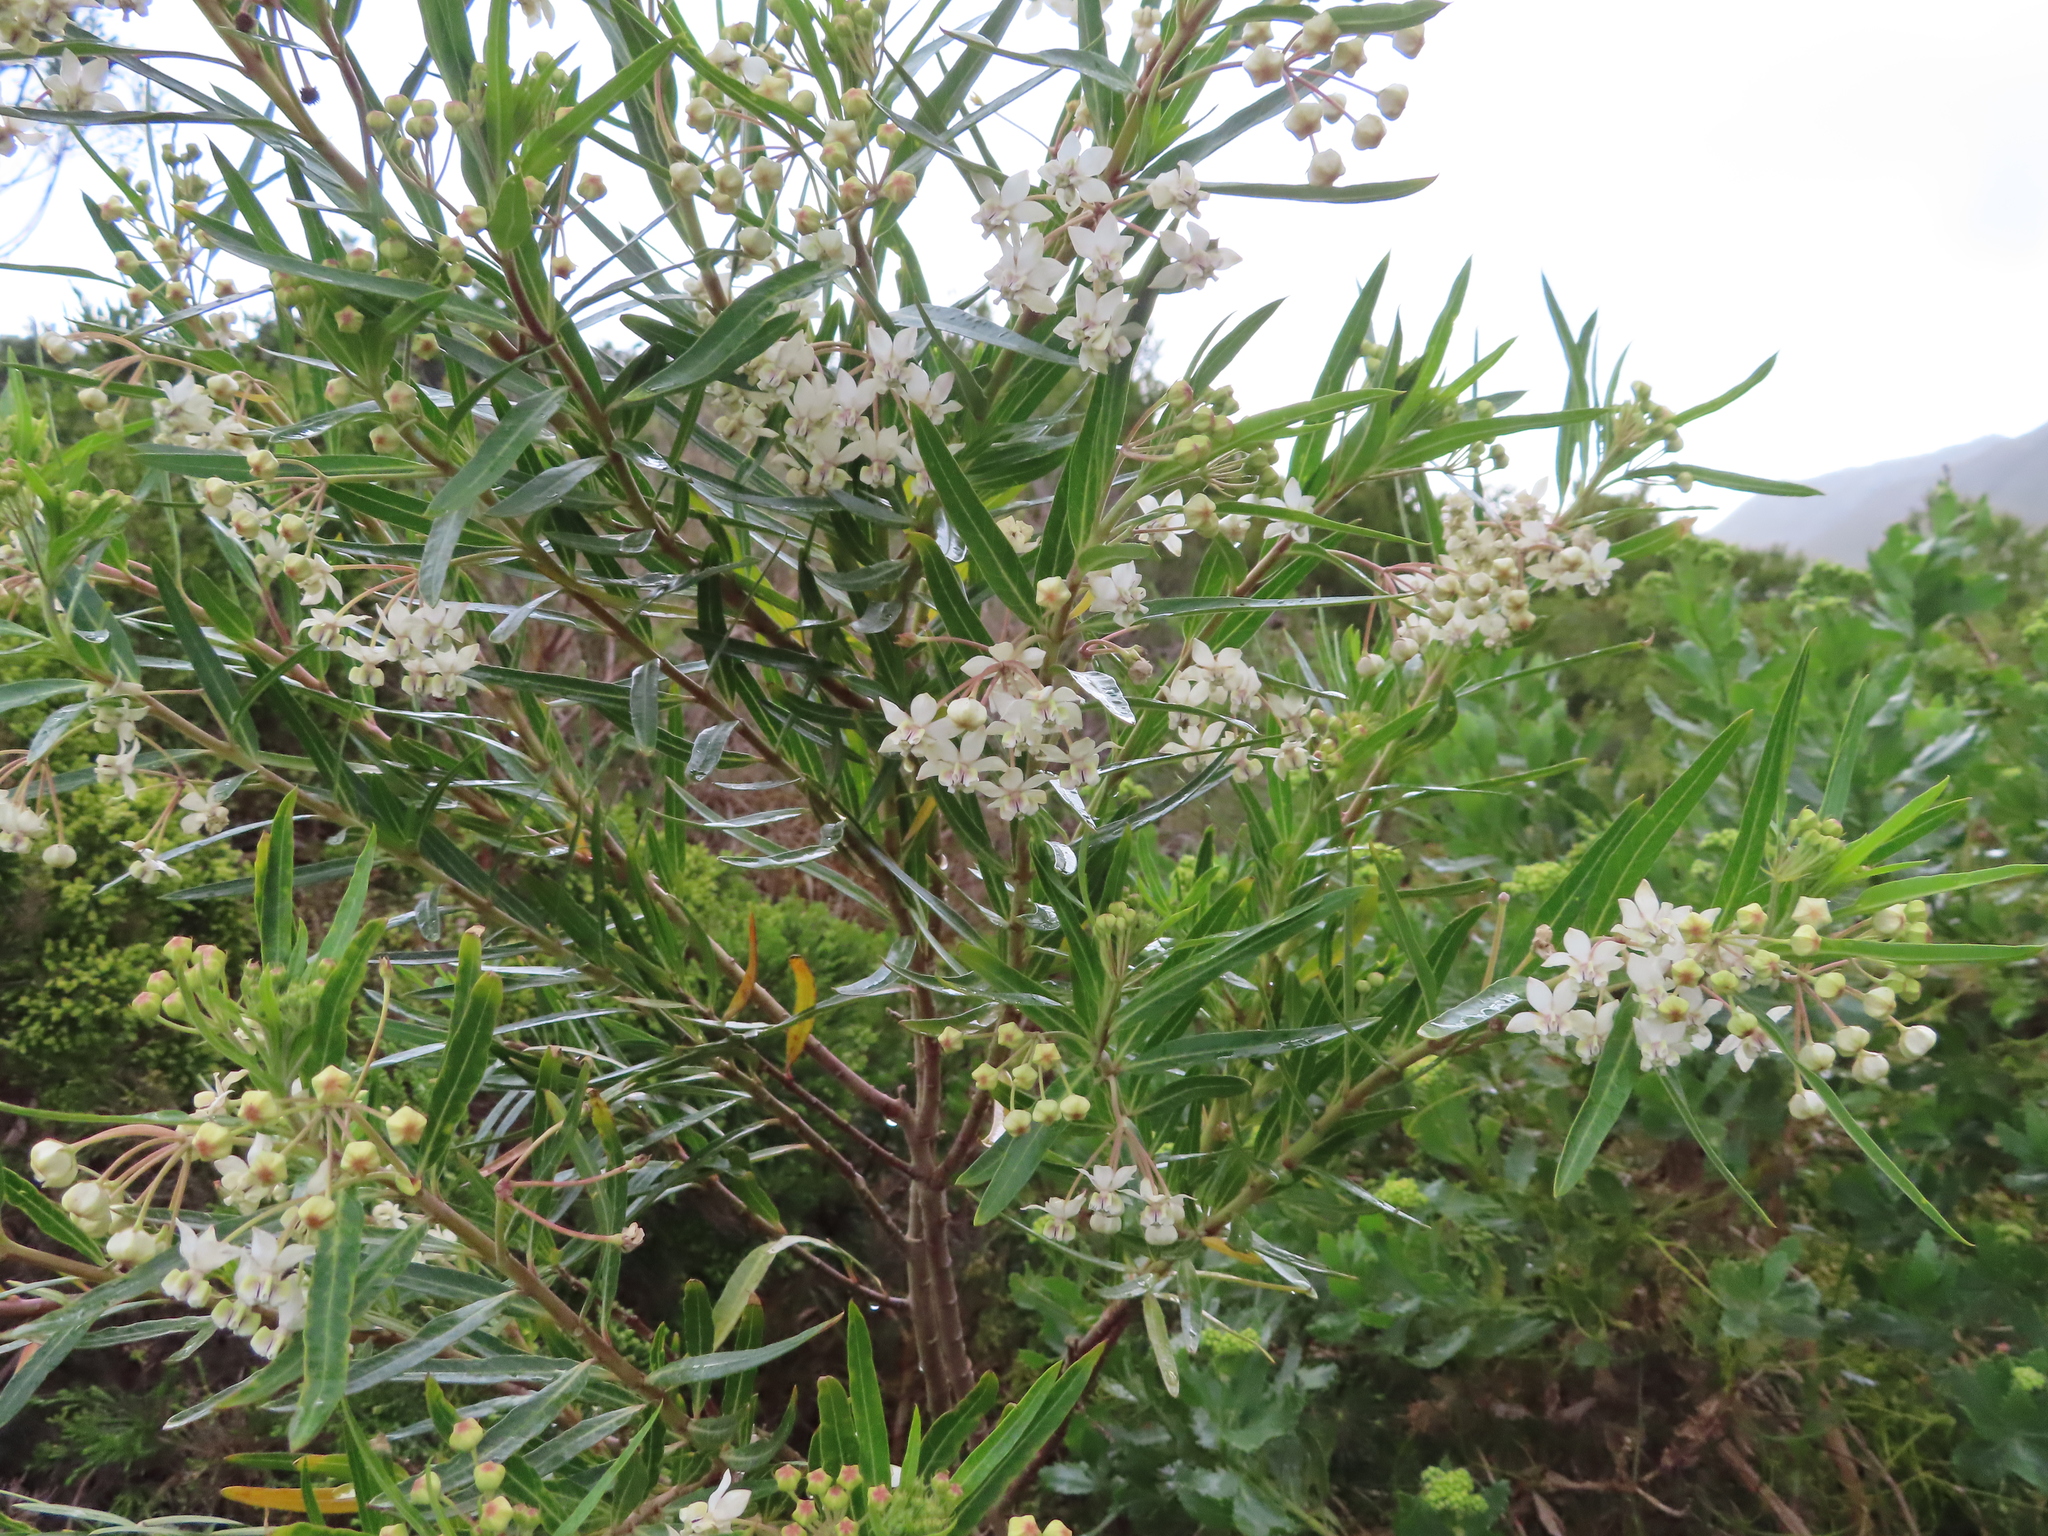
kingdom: Plantae
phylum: Tracheophyta
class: Magnoliopsida
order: Gentianales
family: Apocynaceae
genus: Gomphocarpus
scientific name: Gomphocarpus physocarpus
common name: Balloon cotton bush
